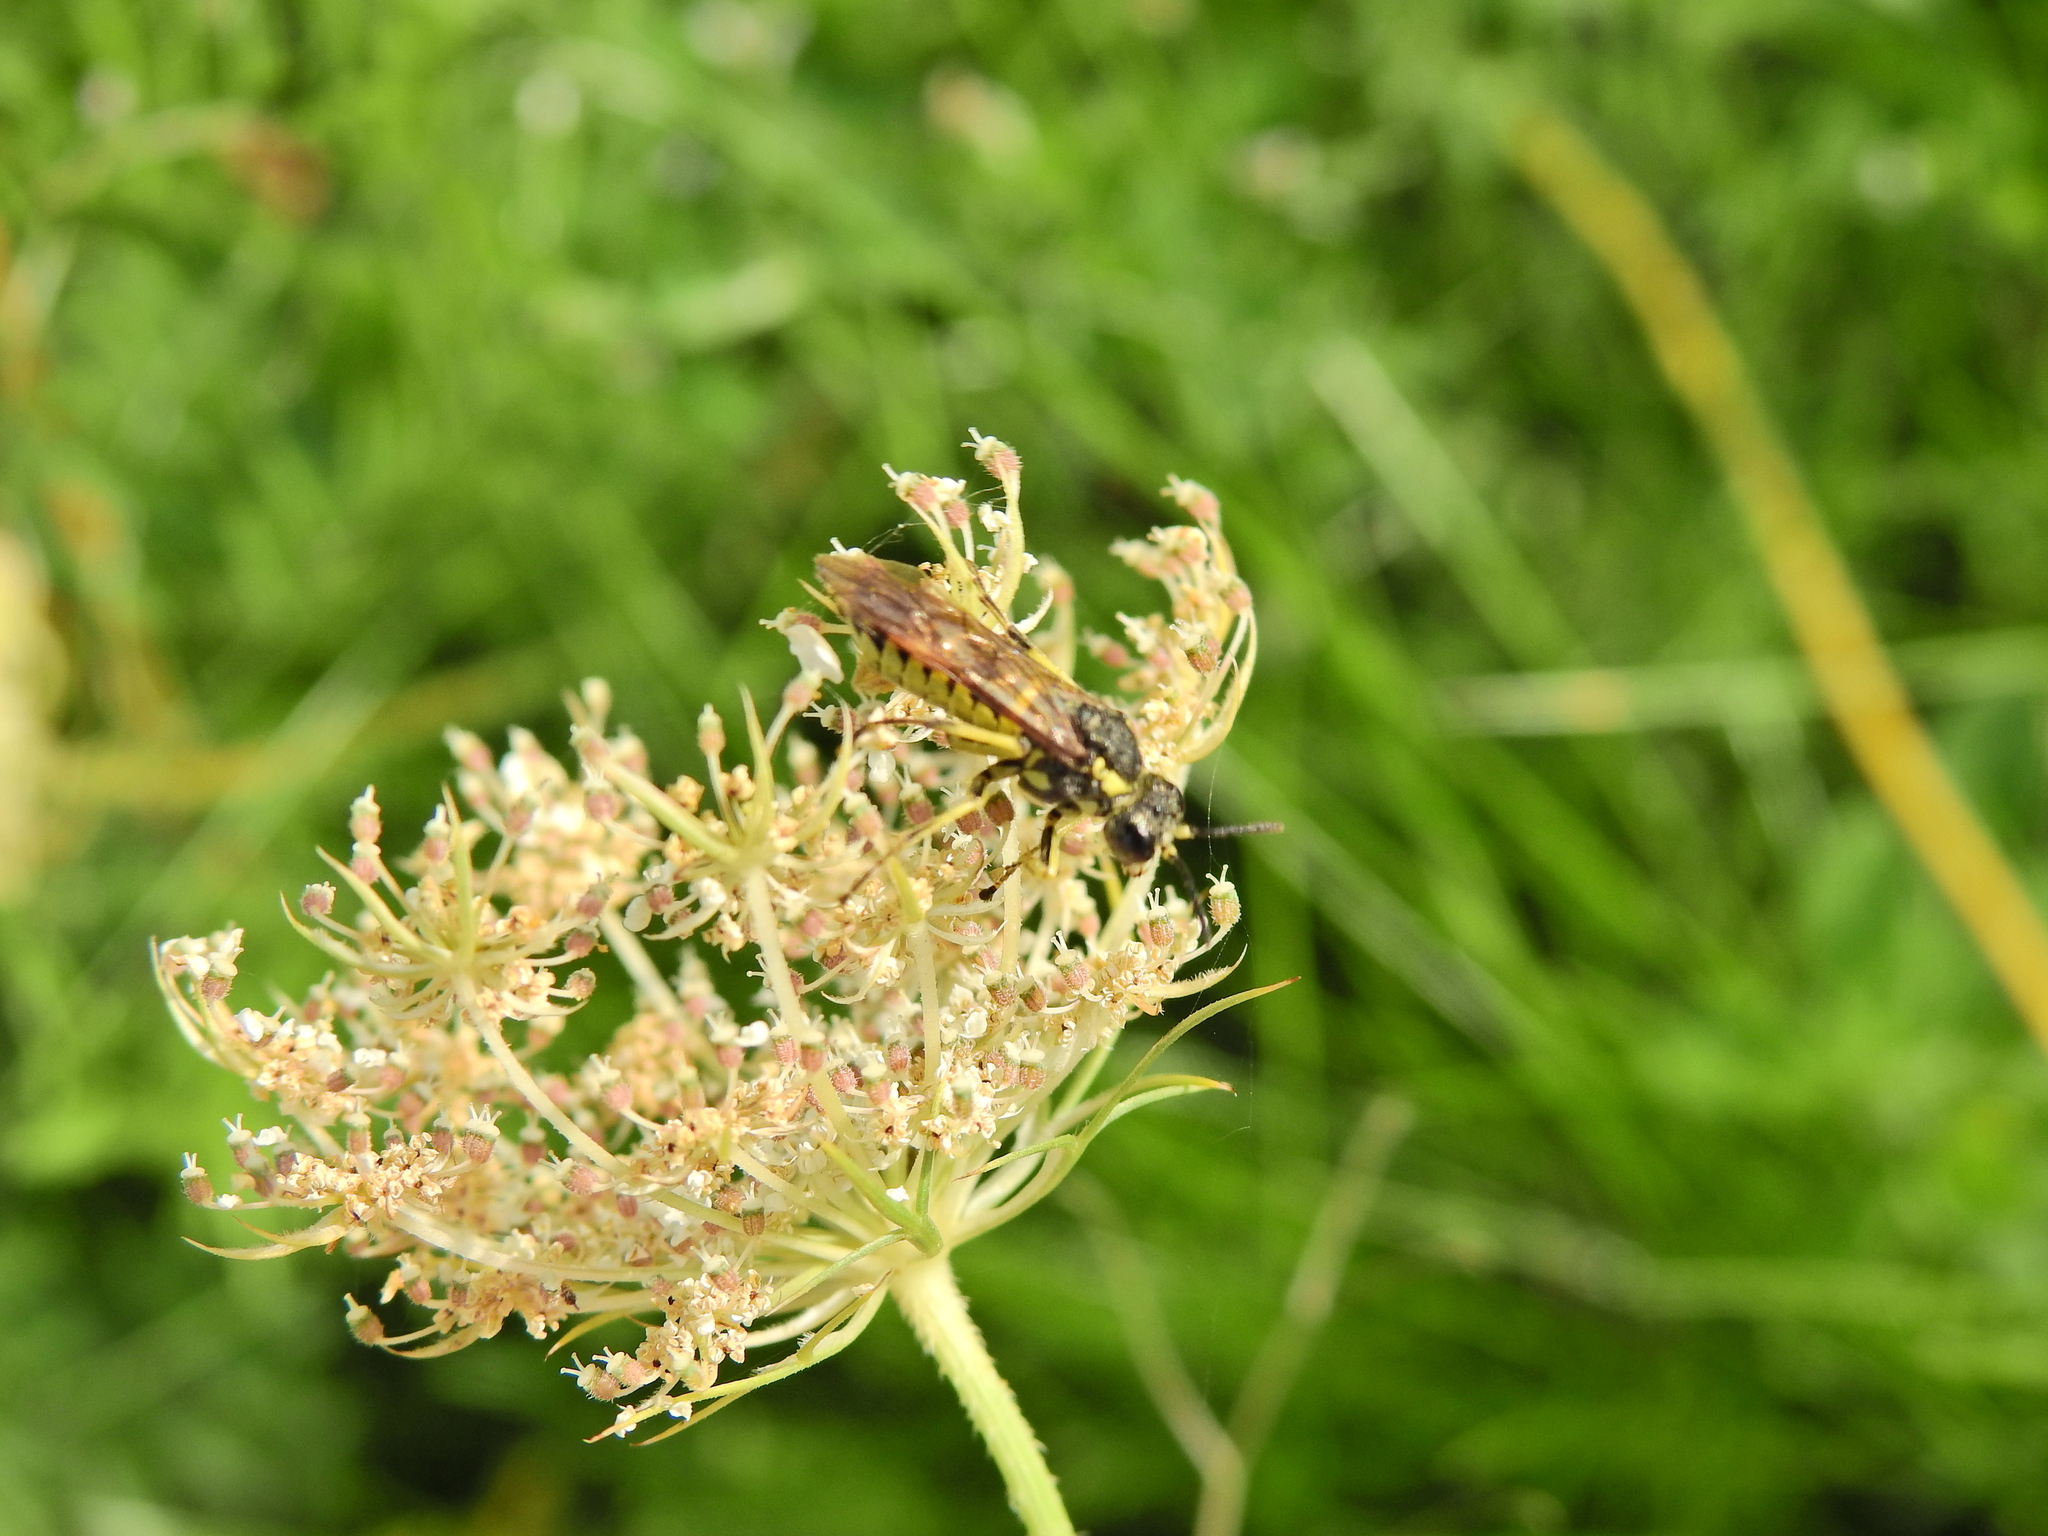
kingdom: Animalia
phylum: Arthropoda
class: Insecta
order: Hymenoptera
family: Tenthredinidae
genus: Tenthredo
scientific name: Tenthredo notha
